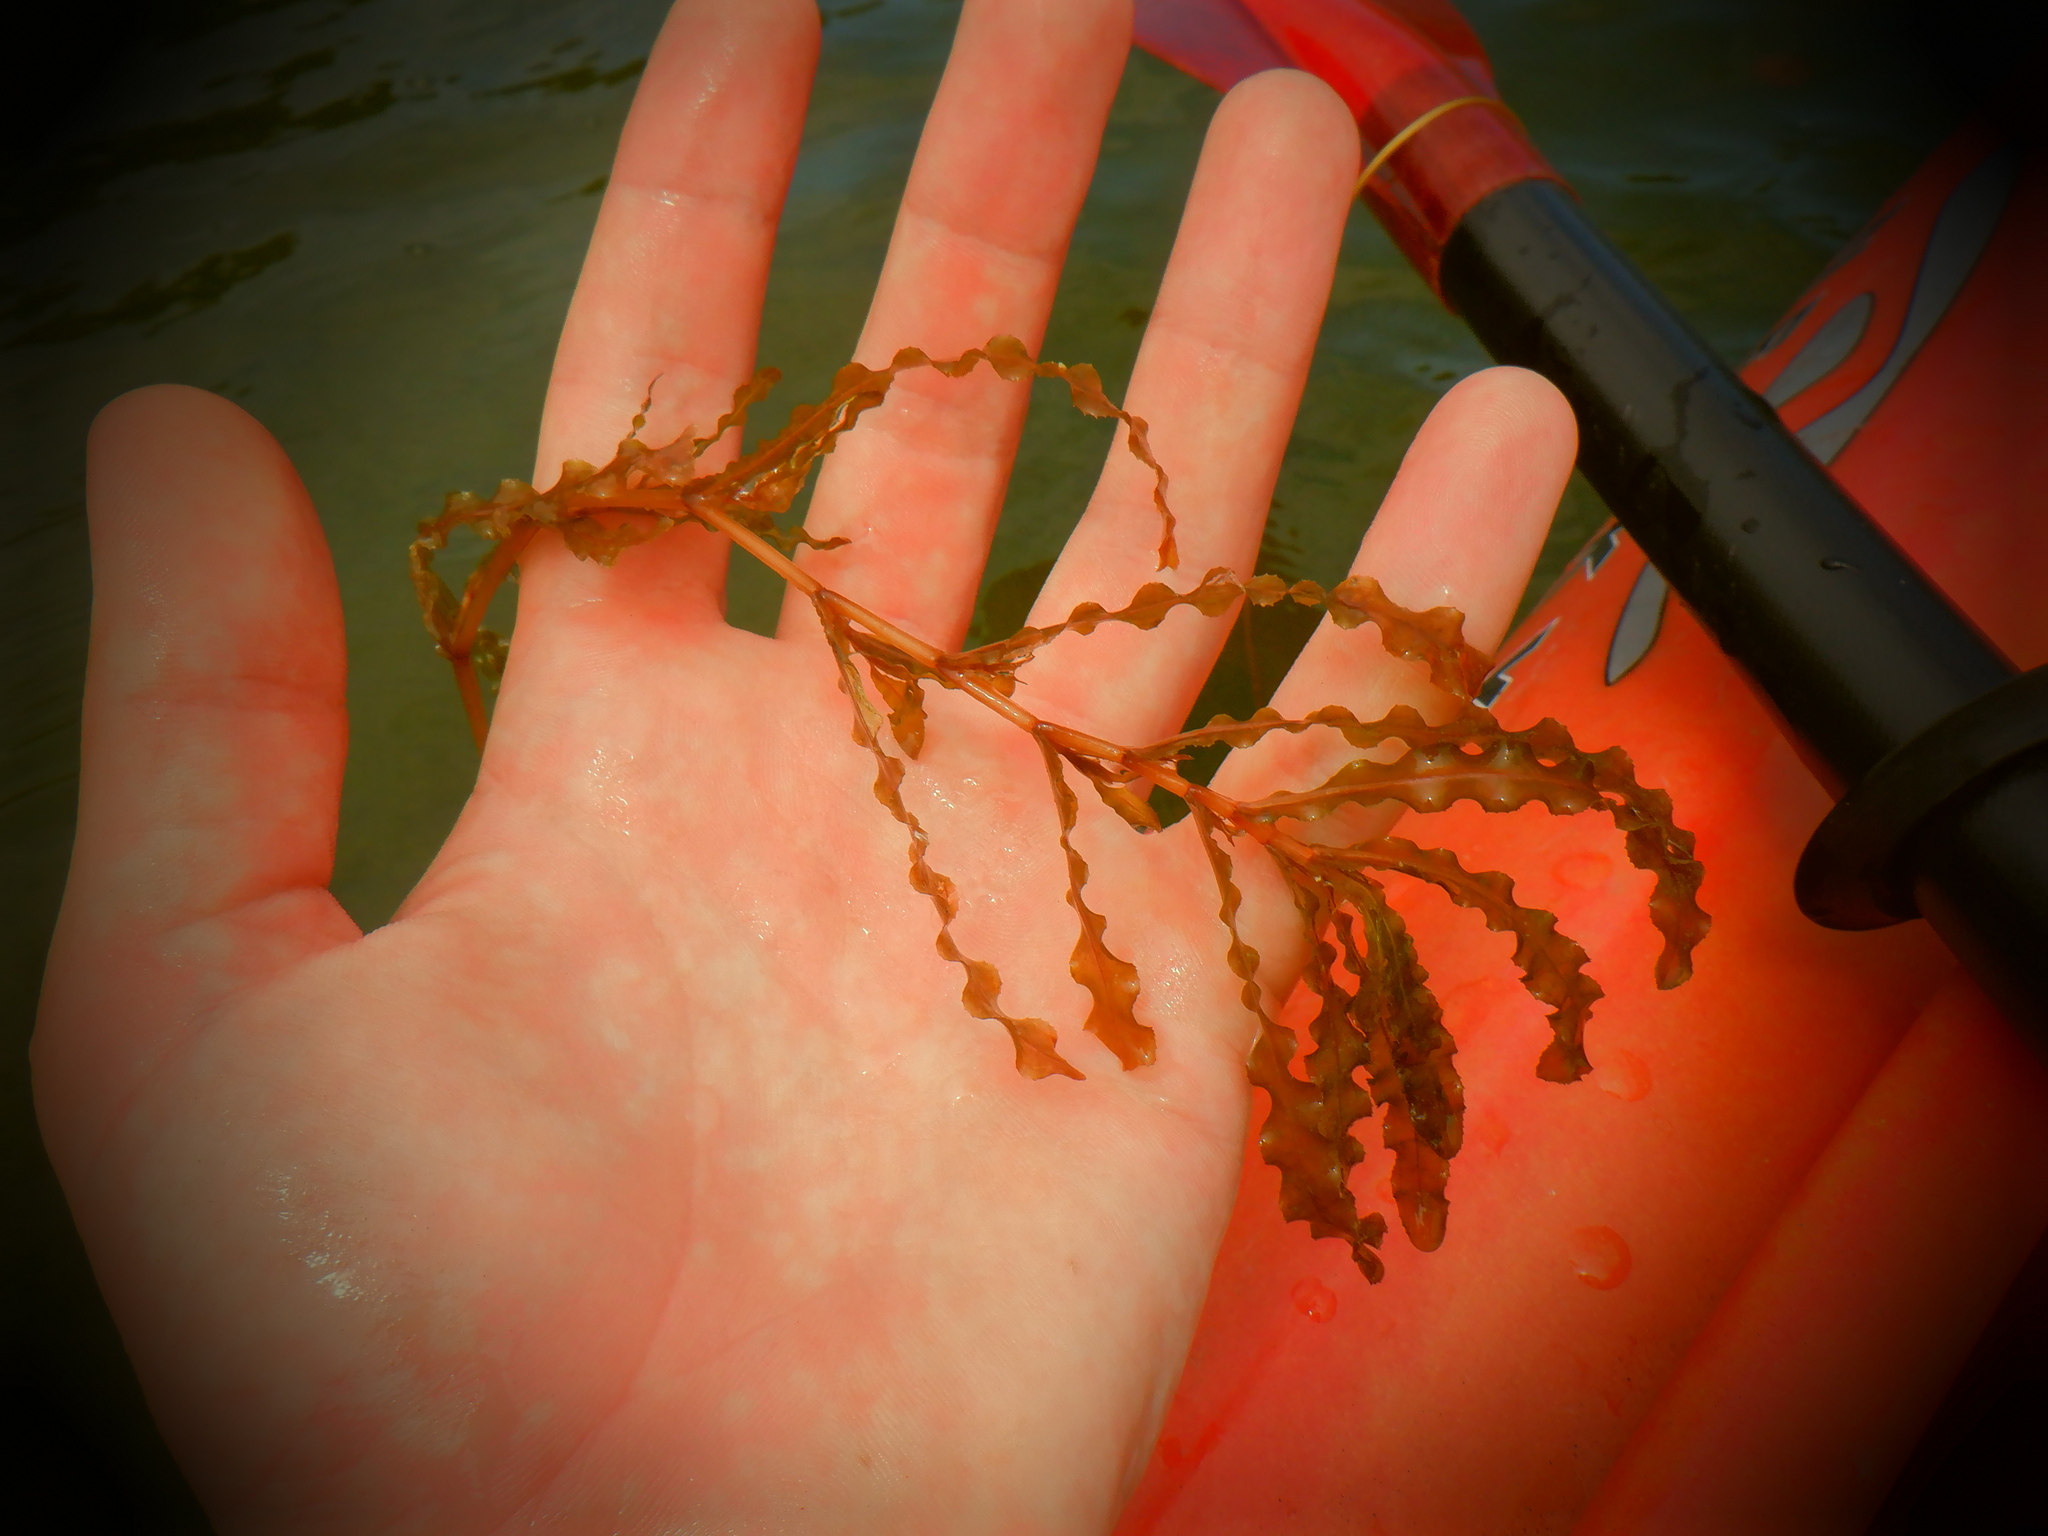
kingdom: Plantae
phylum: Tracheophyta
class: Liliopsida
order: Alismatales
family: Potamogetonaceae
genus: Potamogeton
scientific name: Potamogeton crispus
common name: Curled pondweed
